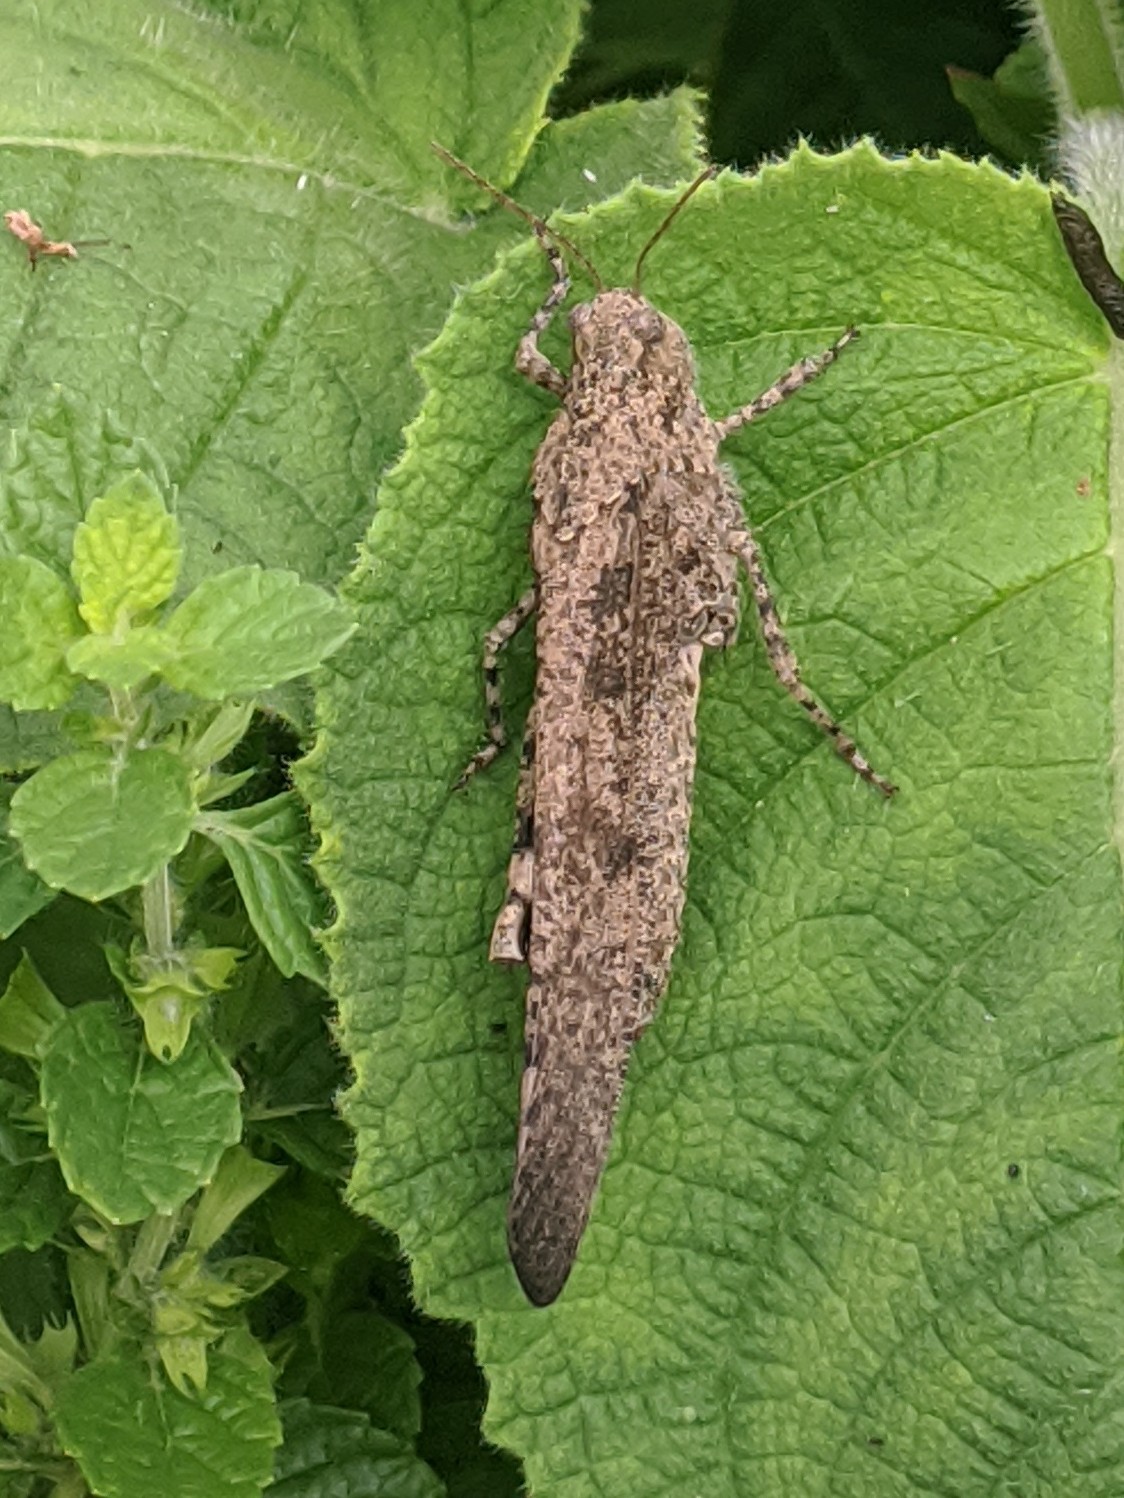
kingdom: Animalia
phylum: Arthropoda
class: Insecta
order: Orthoptera
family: Acrididae
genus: Dissosteira
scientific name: Dissosteira carolina
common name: Carolina grasshopper
